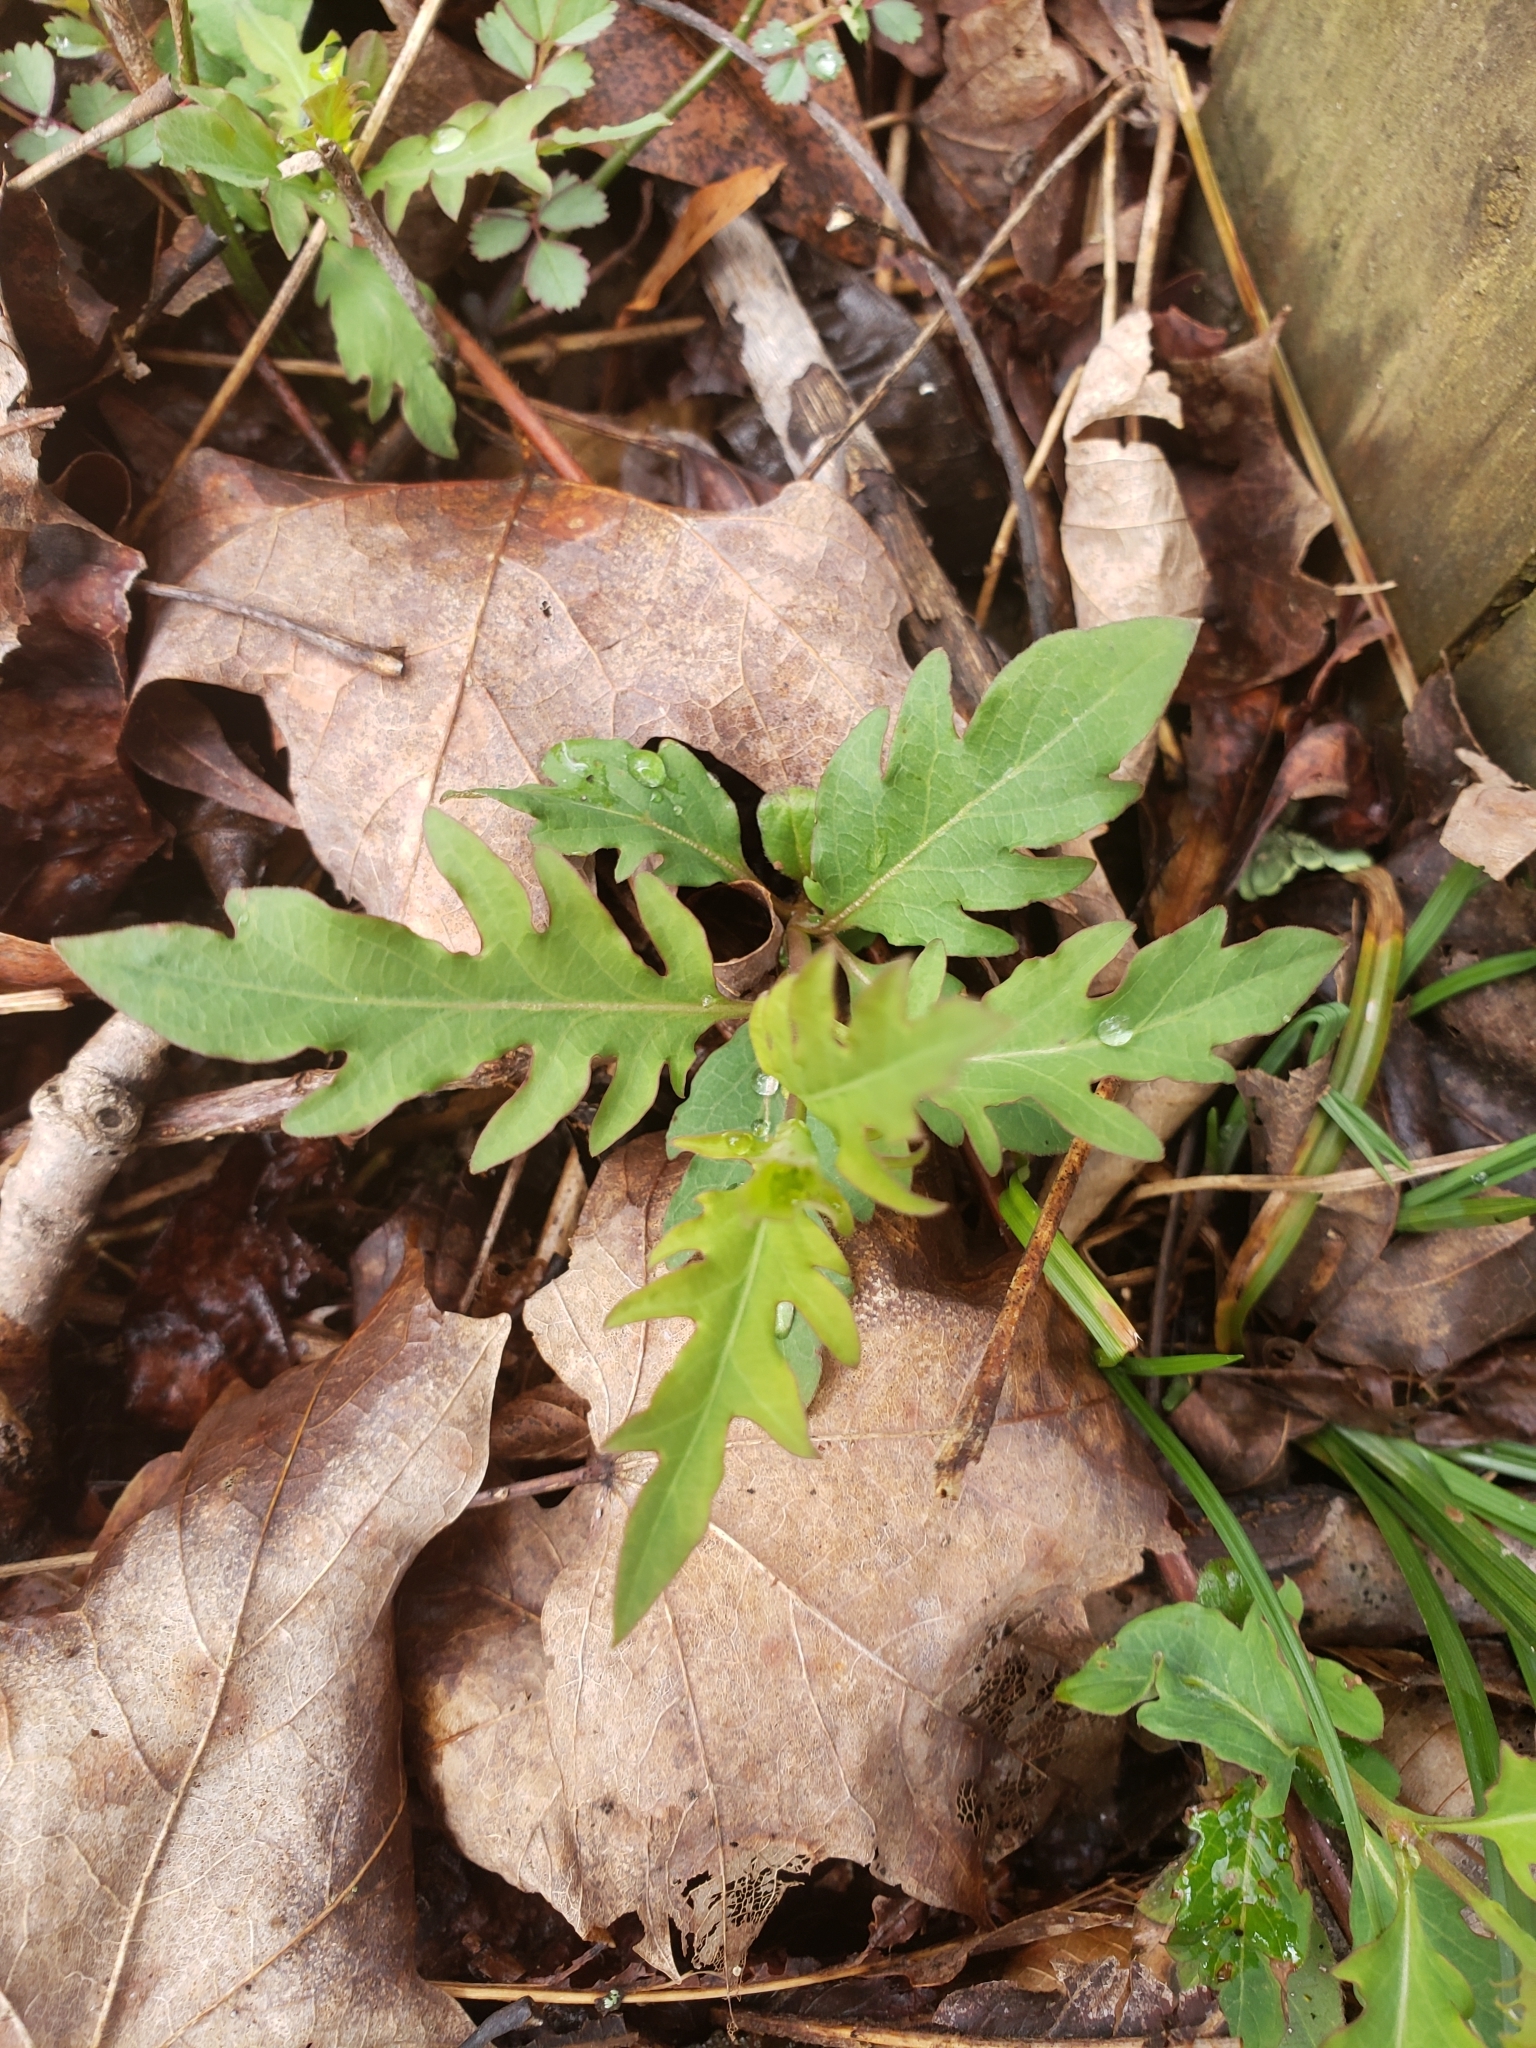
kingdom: Plantae
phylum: Tracheophyta
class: Magnoliopsida
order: Dipsacales
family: Caprifoliaceae
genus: Lonicera
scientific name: Lonicera japonica
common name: Japanese honeysuckle
